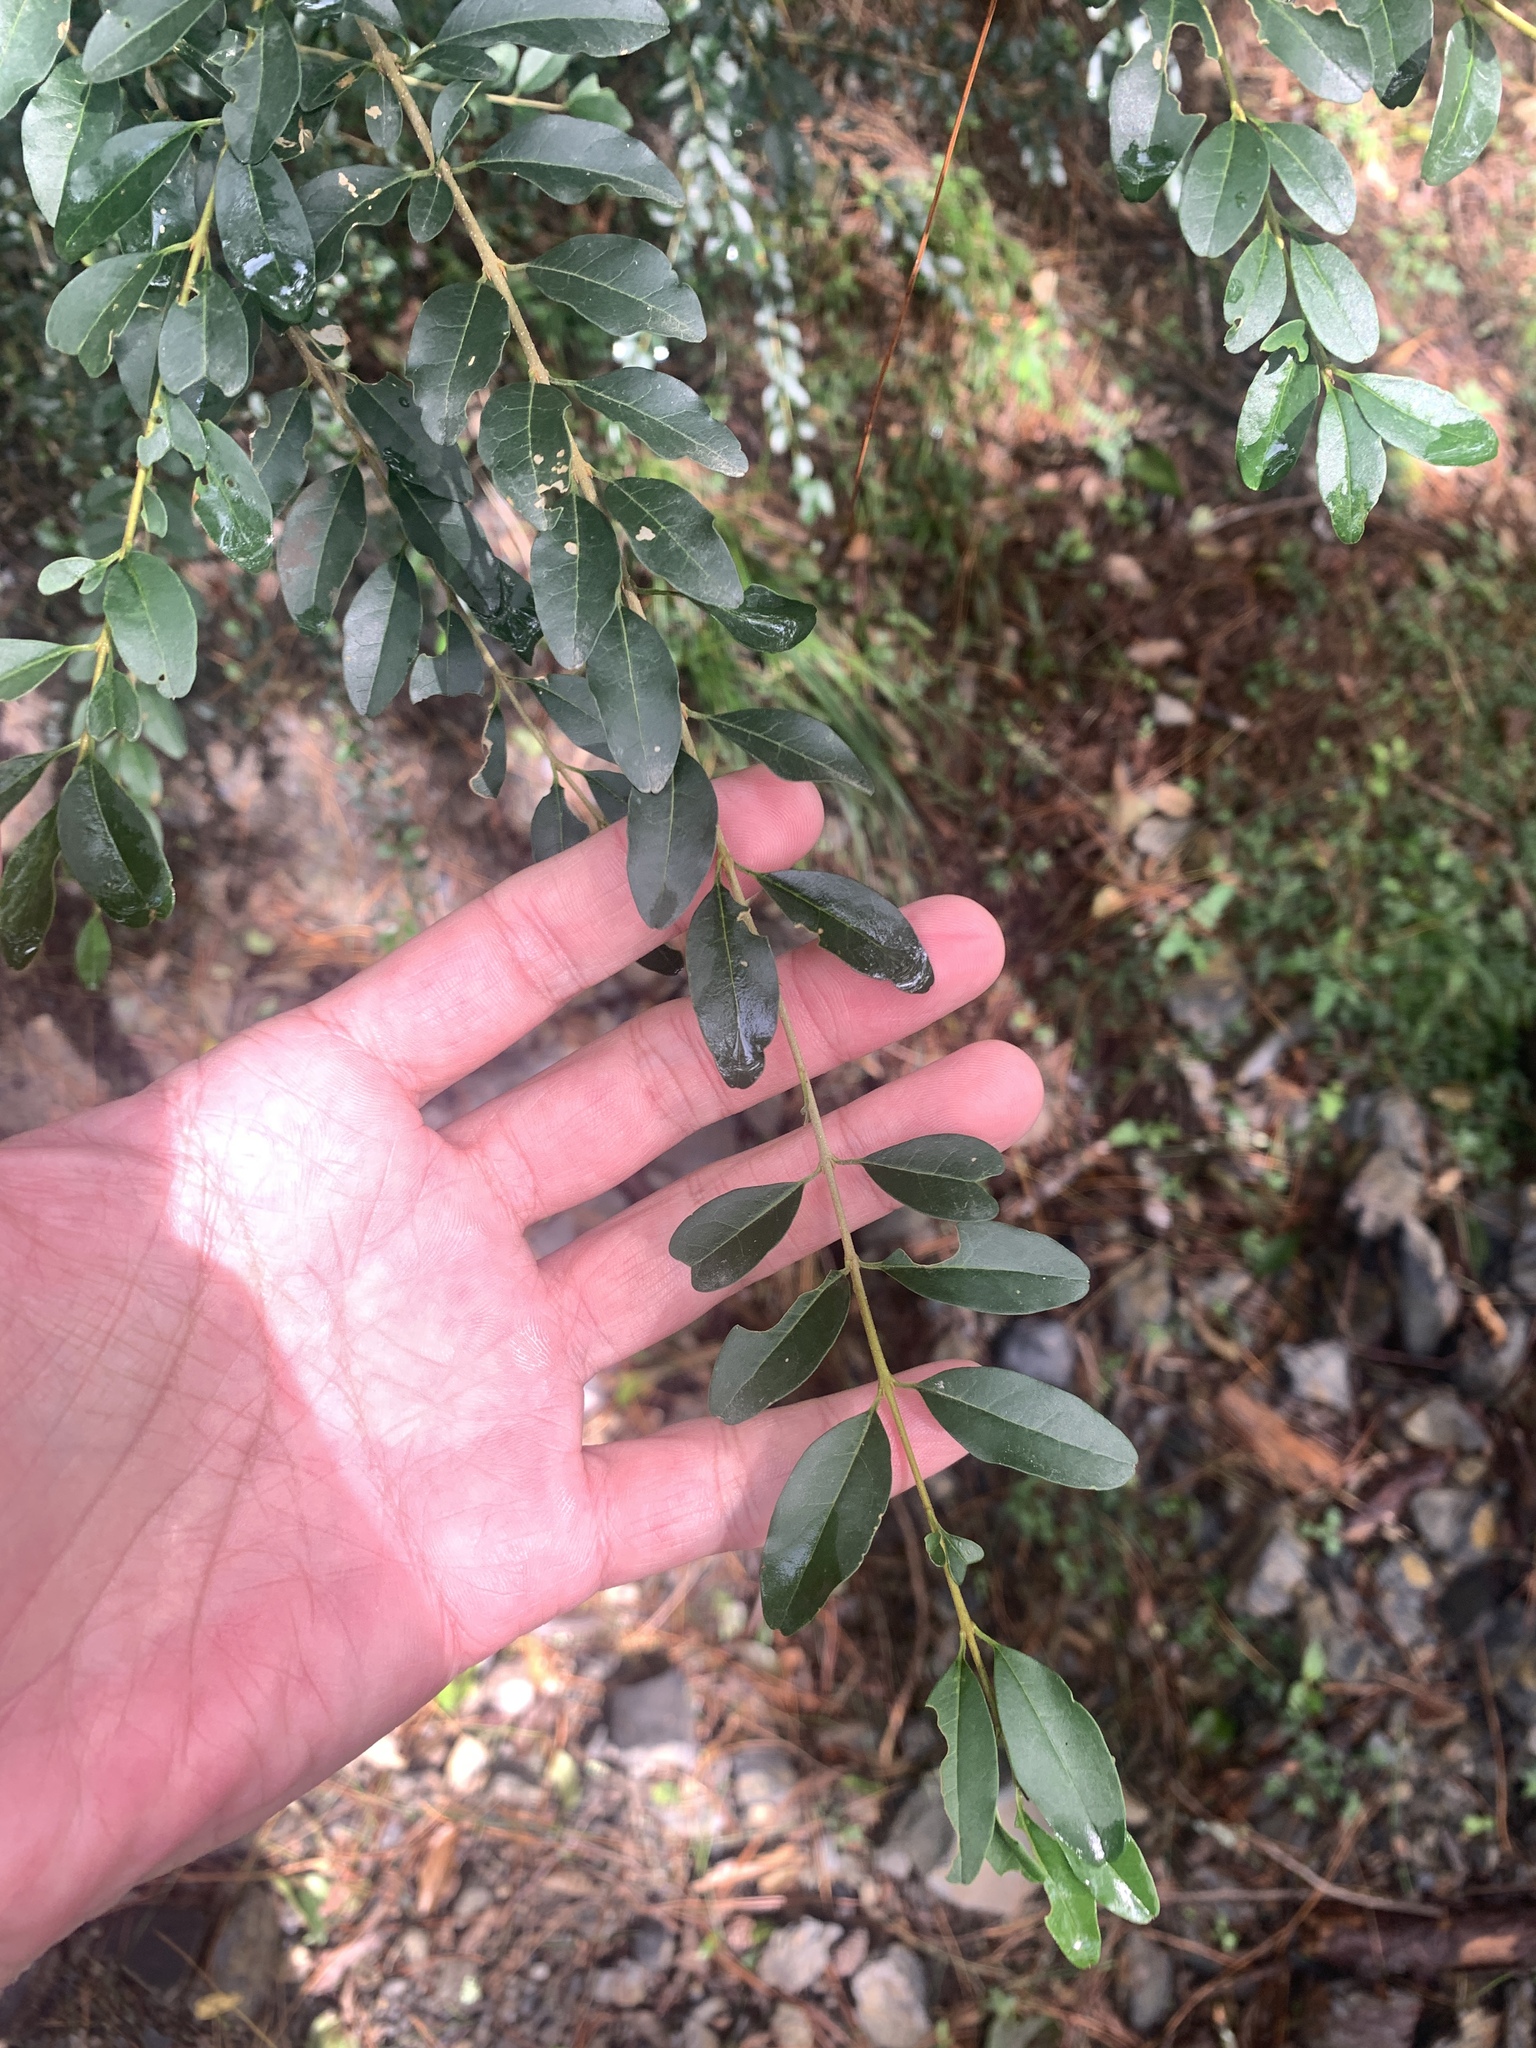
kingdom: Plantae
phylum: Tracheophyta
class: Magnoliopsida
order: Lamiales
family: Oleaceae
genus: Ligustrum
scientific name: Ligustrum sinense
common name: Chinese privet
